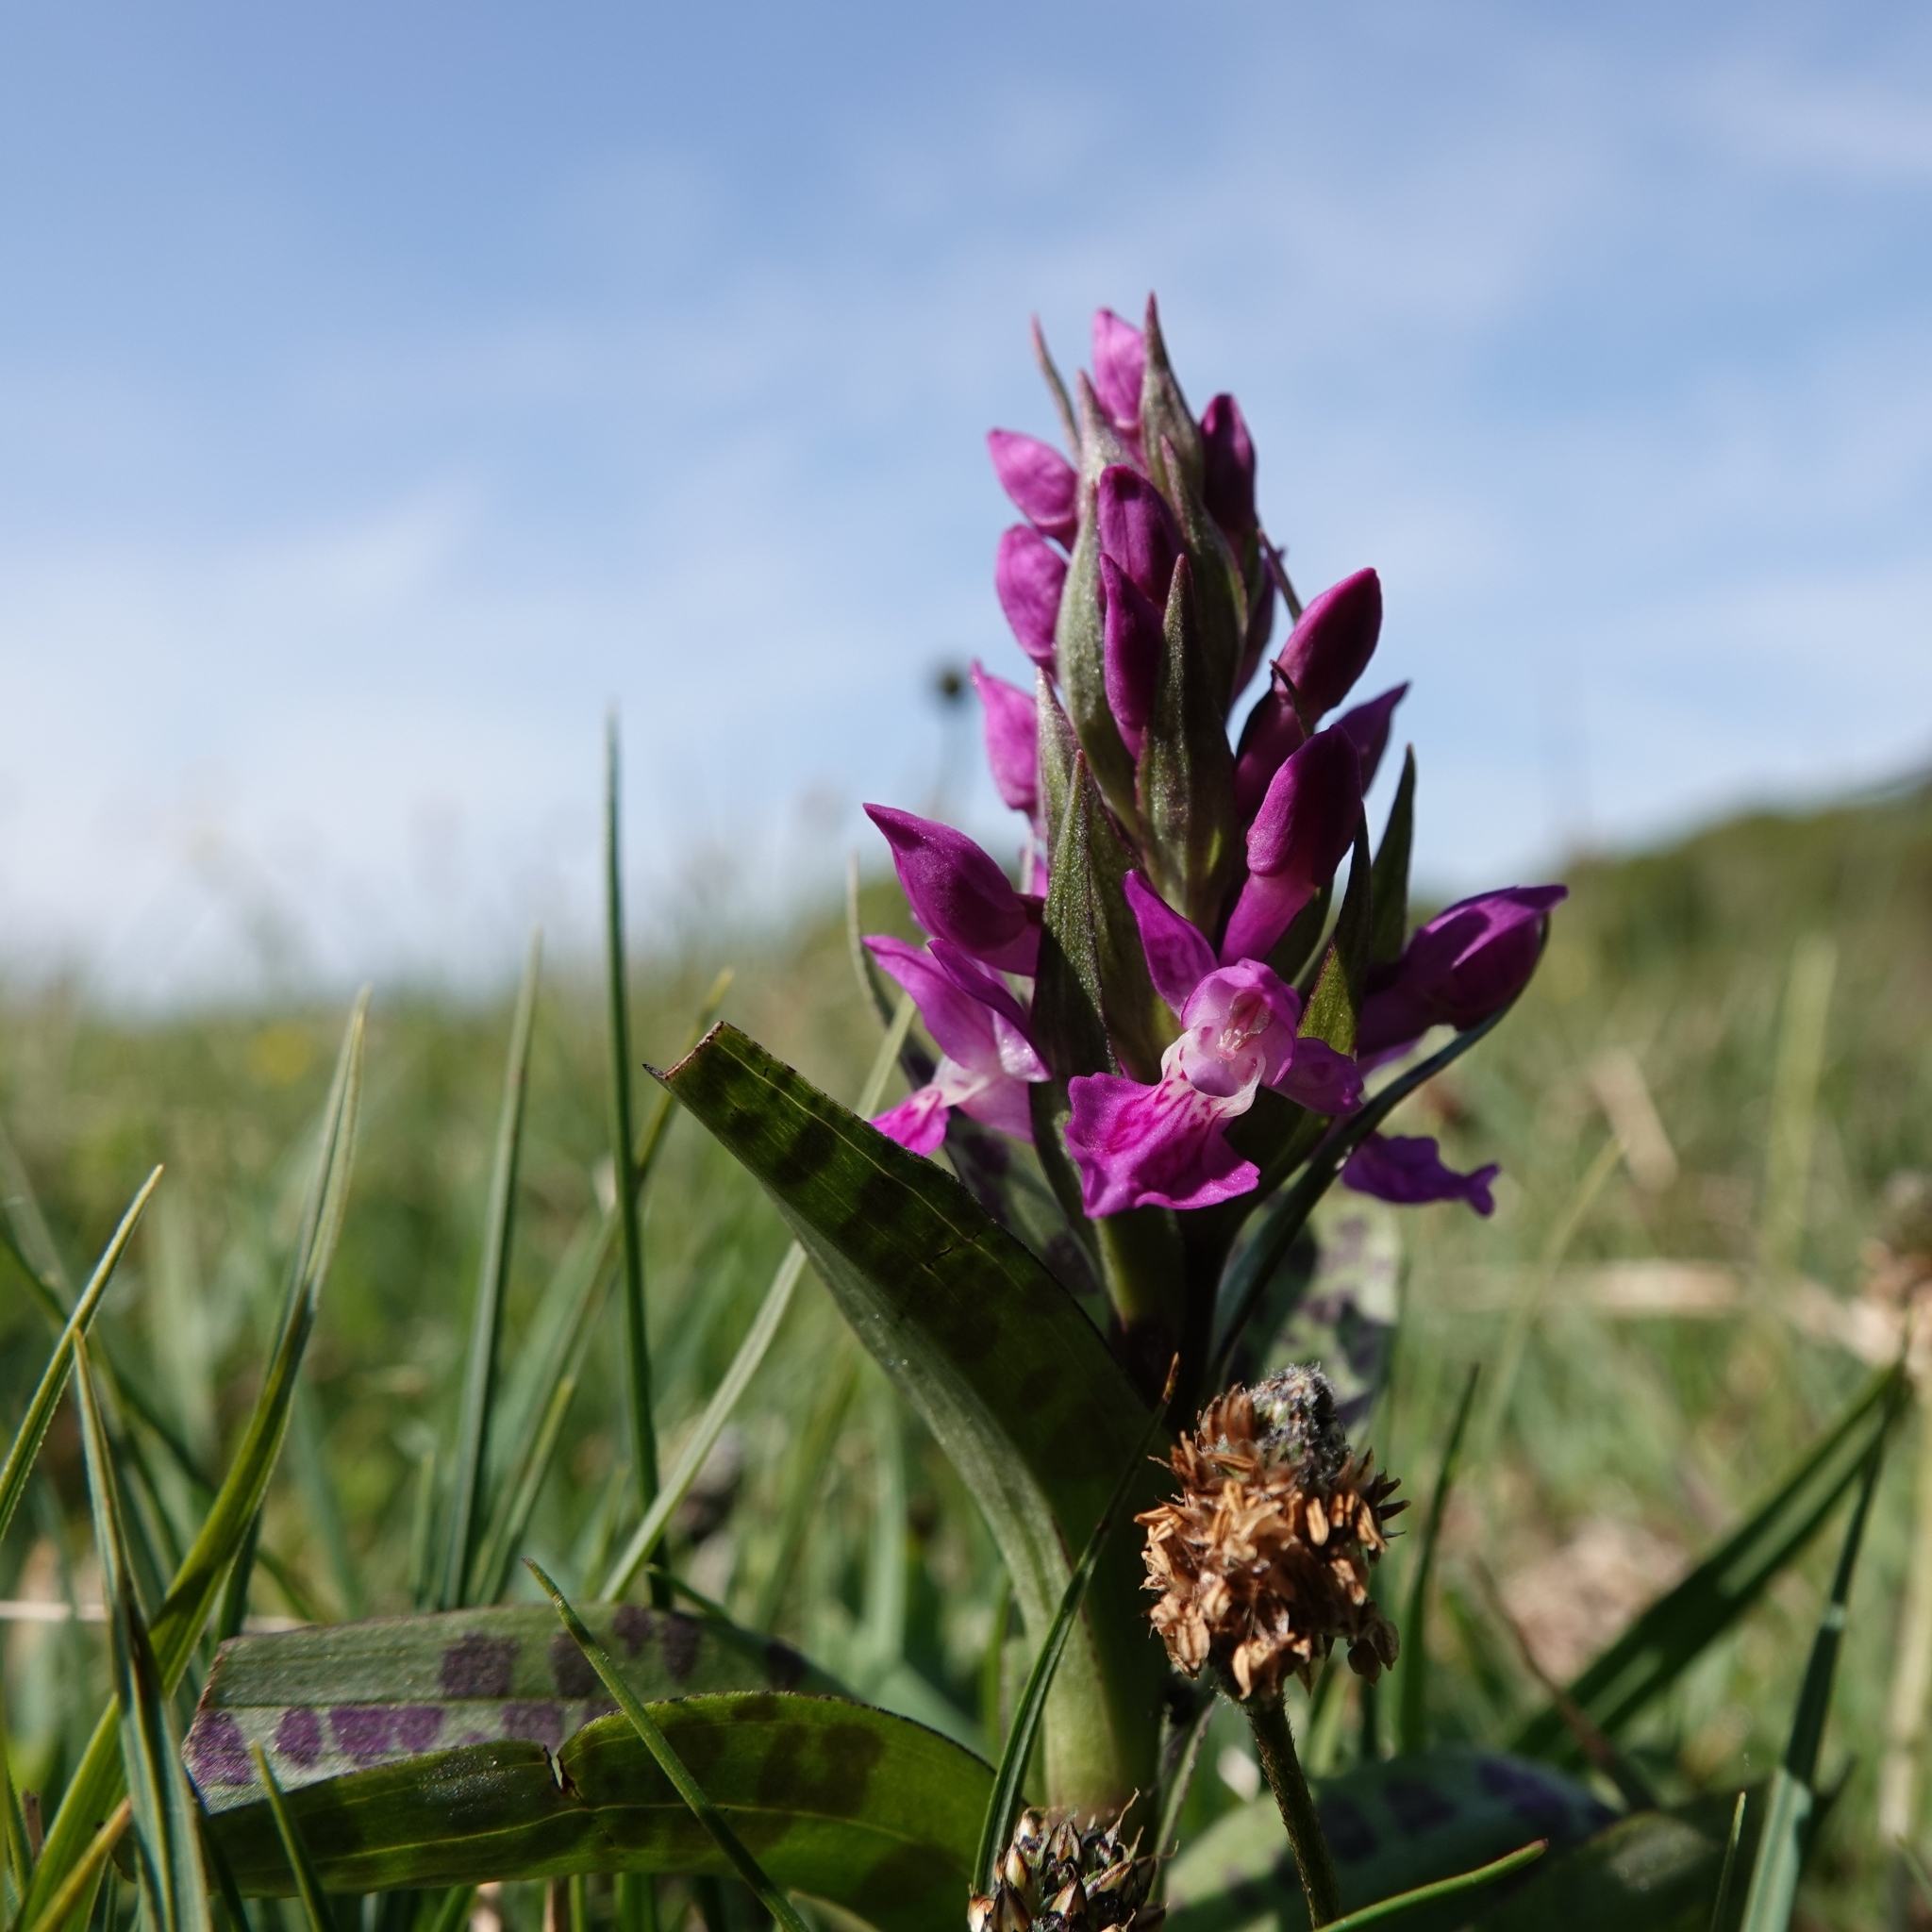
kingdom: Plantae
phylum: Tracheophyta
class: Liliopsida
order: Asparagales
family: Orchidaceae
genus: Dactylorhiza
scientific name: Dactylorhiza majalis
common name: Marsh orchid
